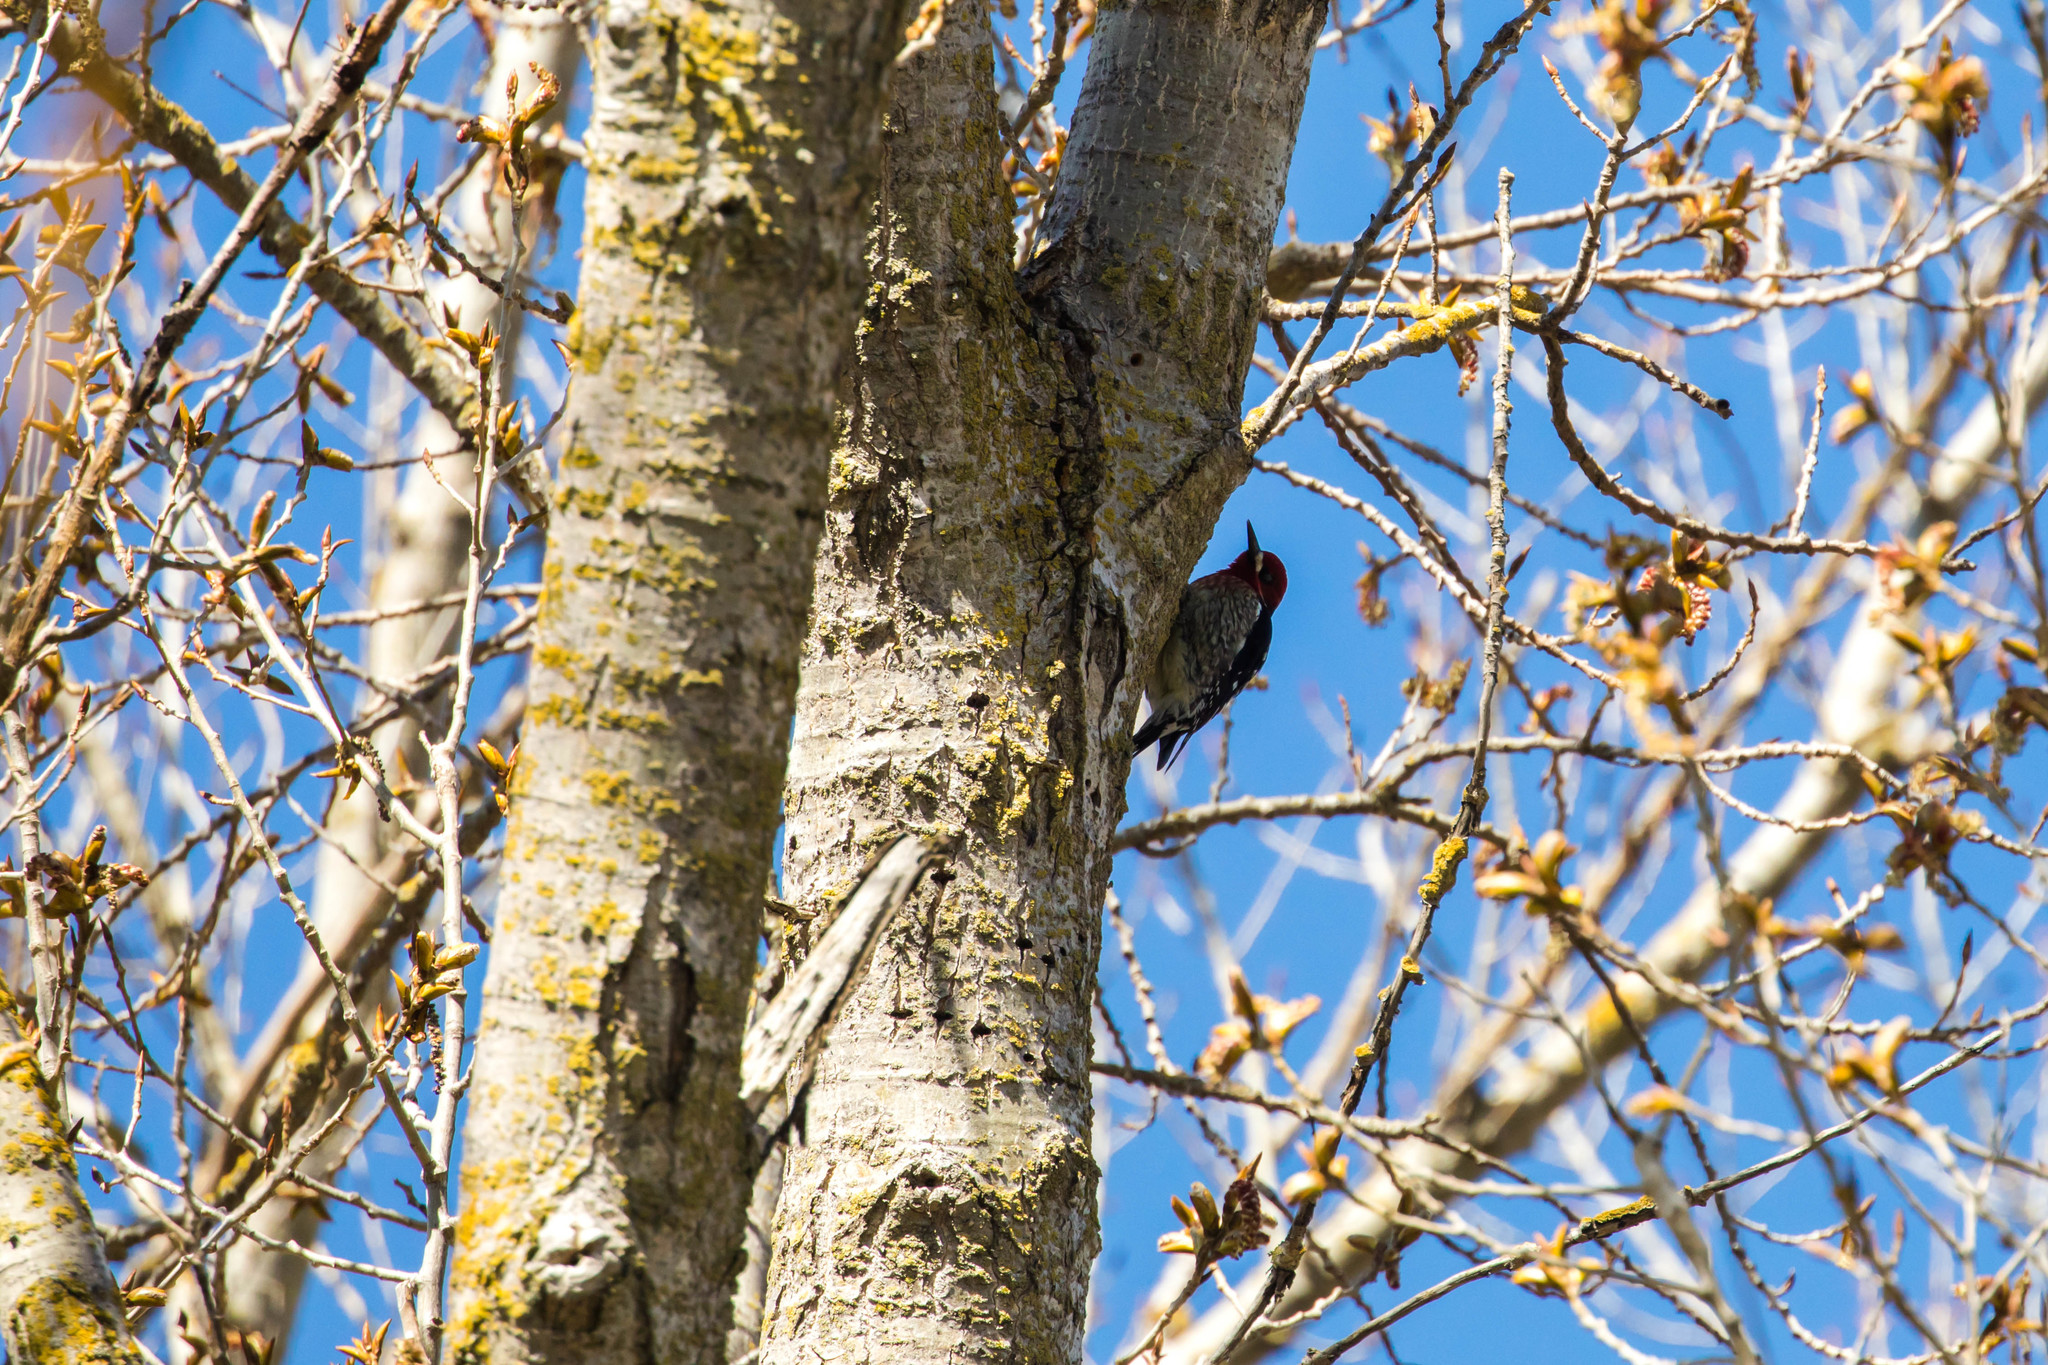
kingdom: Animalia
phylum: Chordata
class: Aves
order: Piciformes
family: Picidae
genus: Sphyrapicus
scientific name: Sphyrapicus ruber
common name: Red-breasted sapsucker
